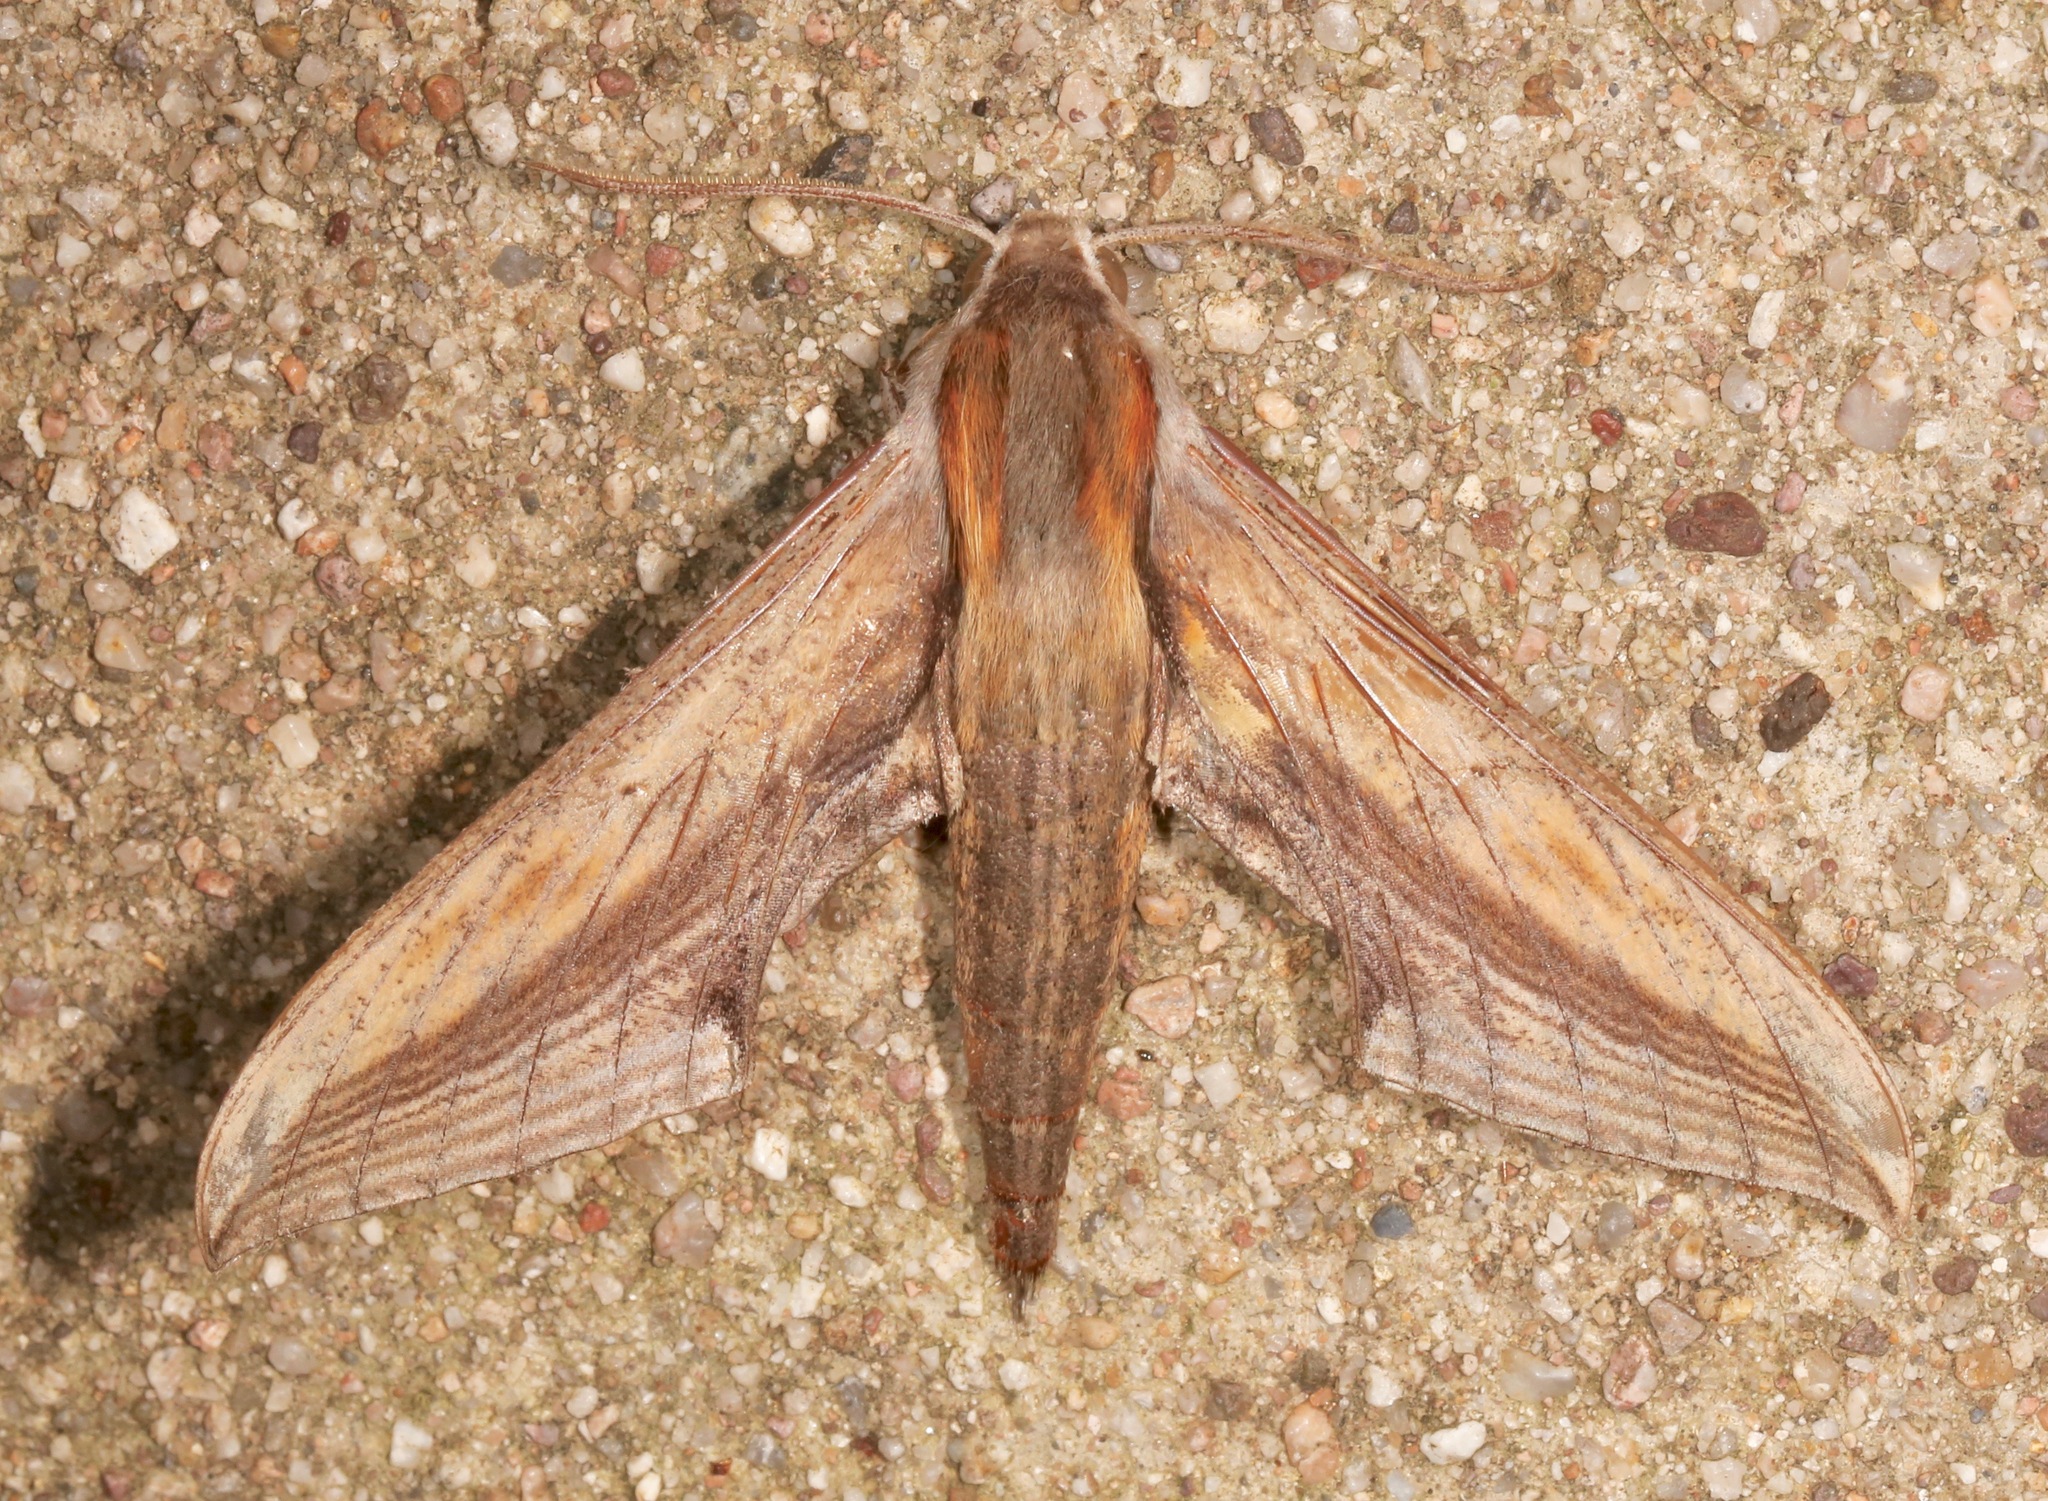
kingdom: Animalia
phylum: Arthropoda
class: Insecta
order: Lepidoptera
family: Sphingidae
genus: Xylophanes
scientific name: Xylophanes falco
